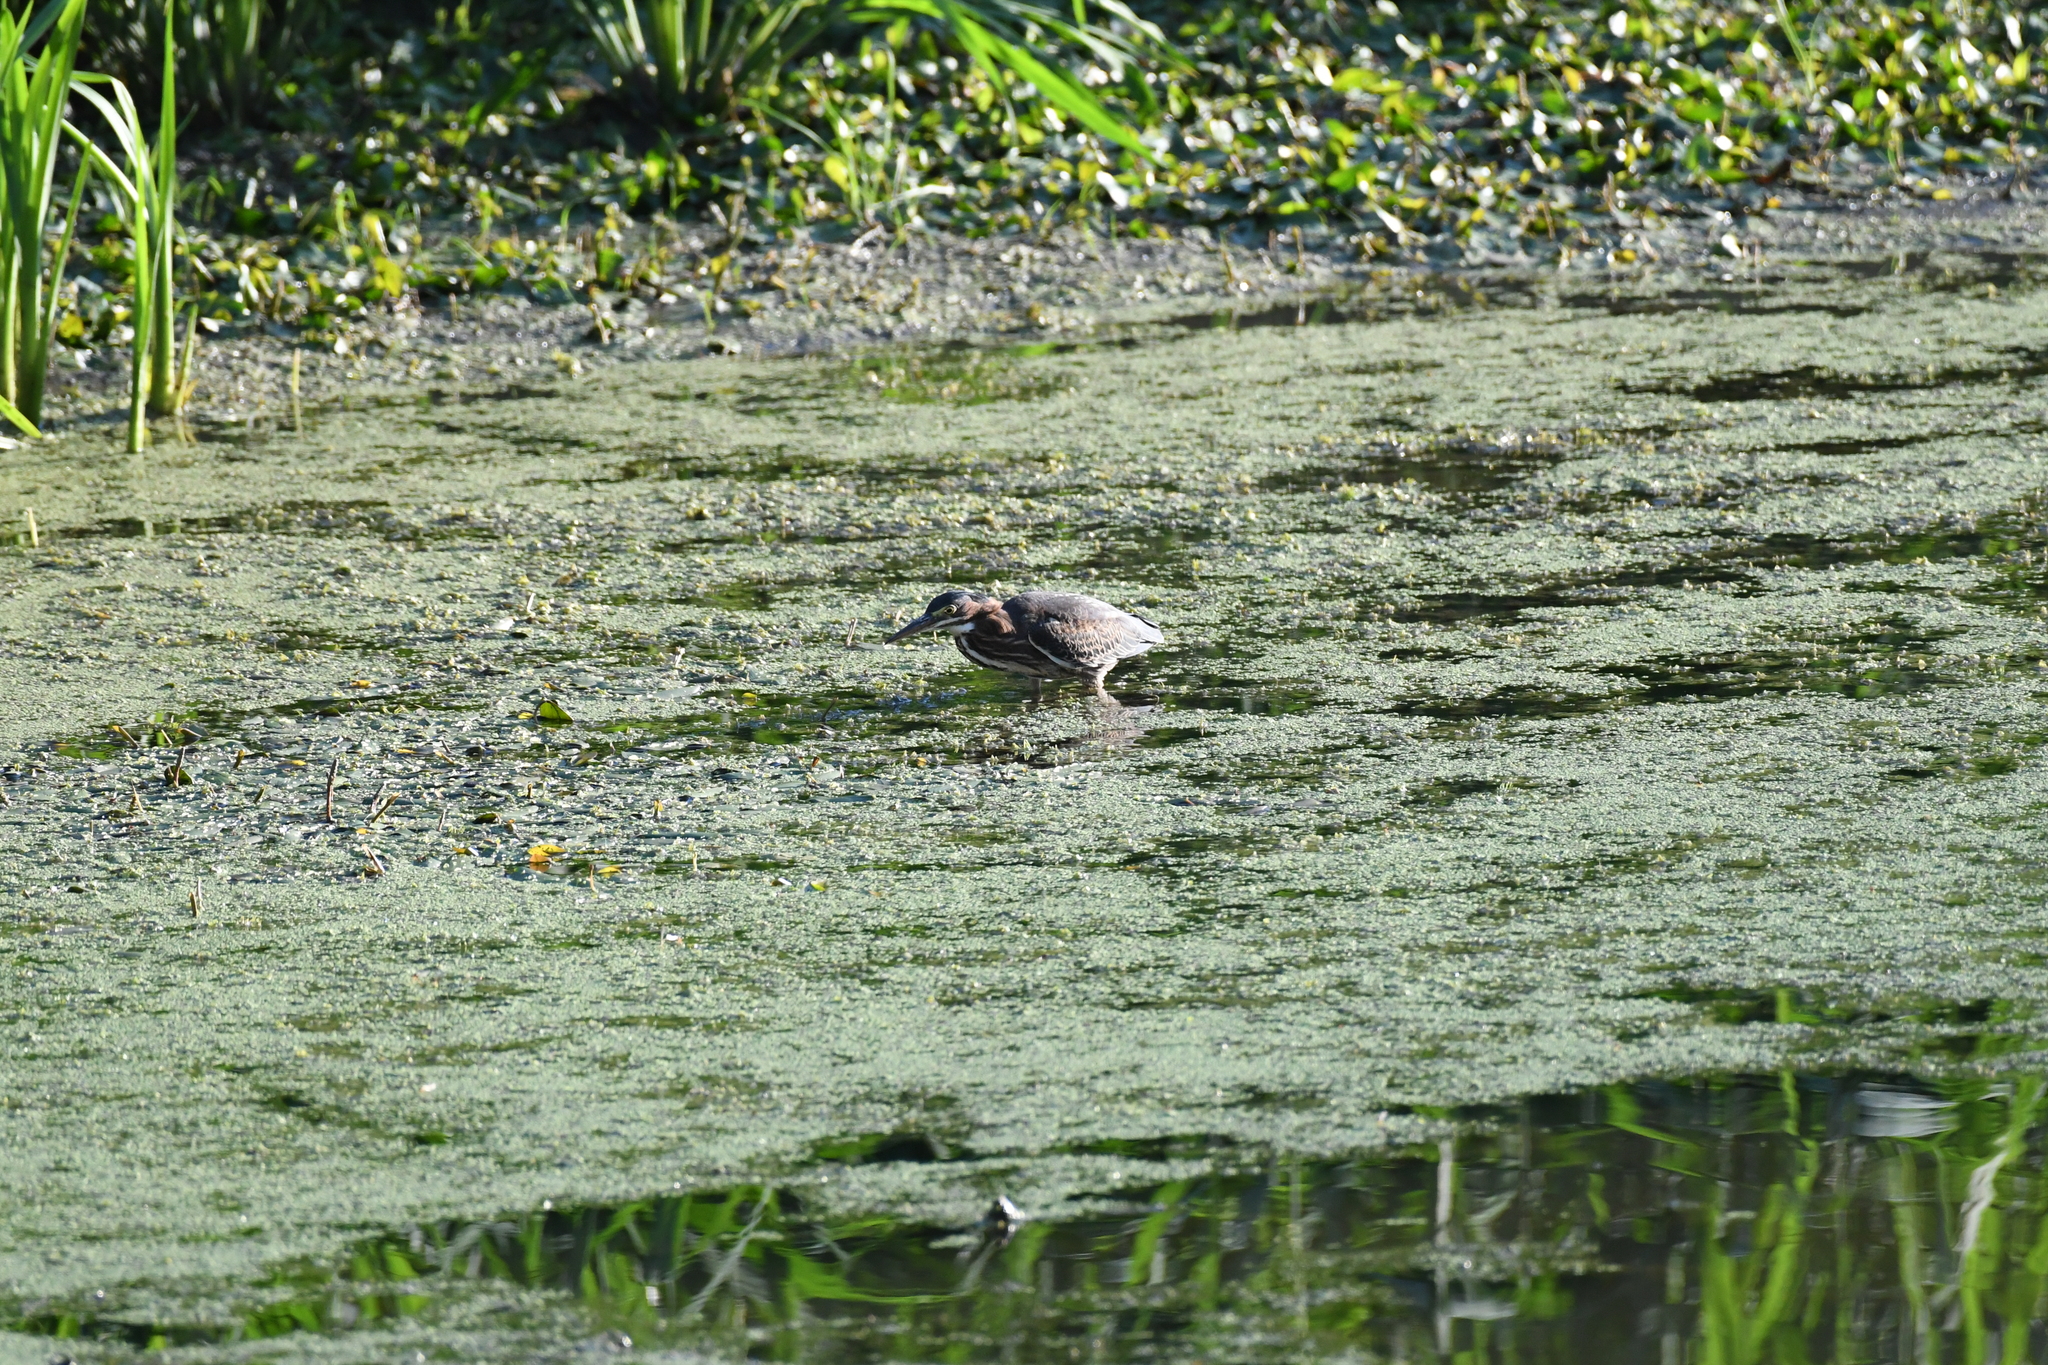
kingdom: Animalia
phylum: Chordata
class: Aves
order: Pelecaniformes
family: Ardeidae
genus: Butorides
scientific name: Butorides virescens
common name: Green heron
